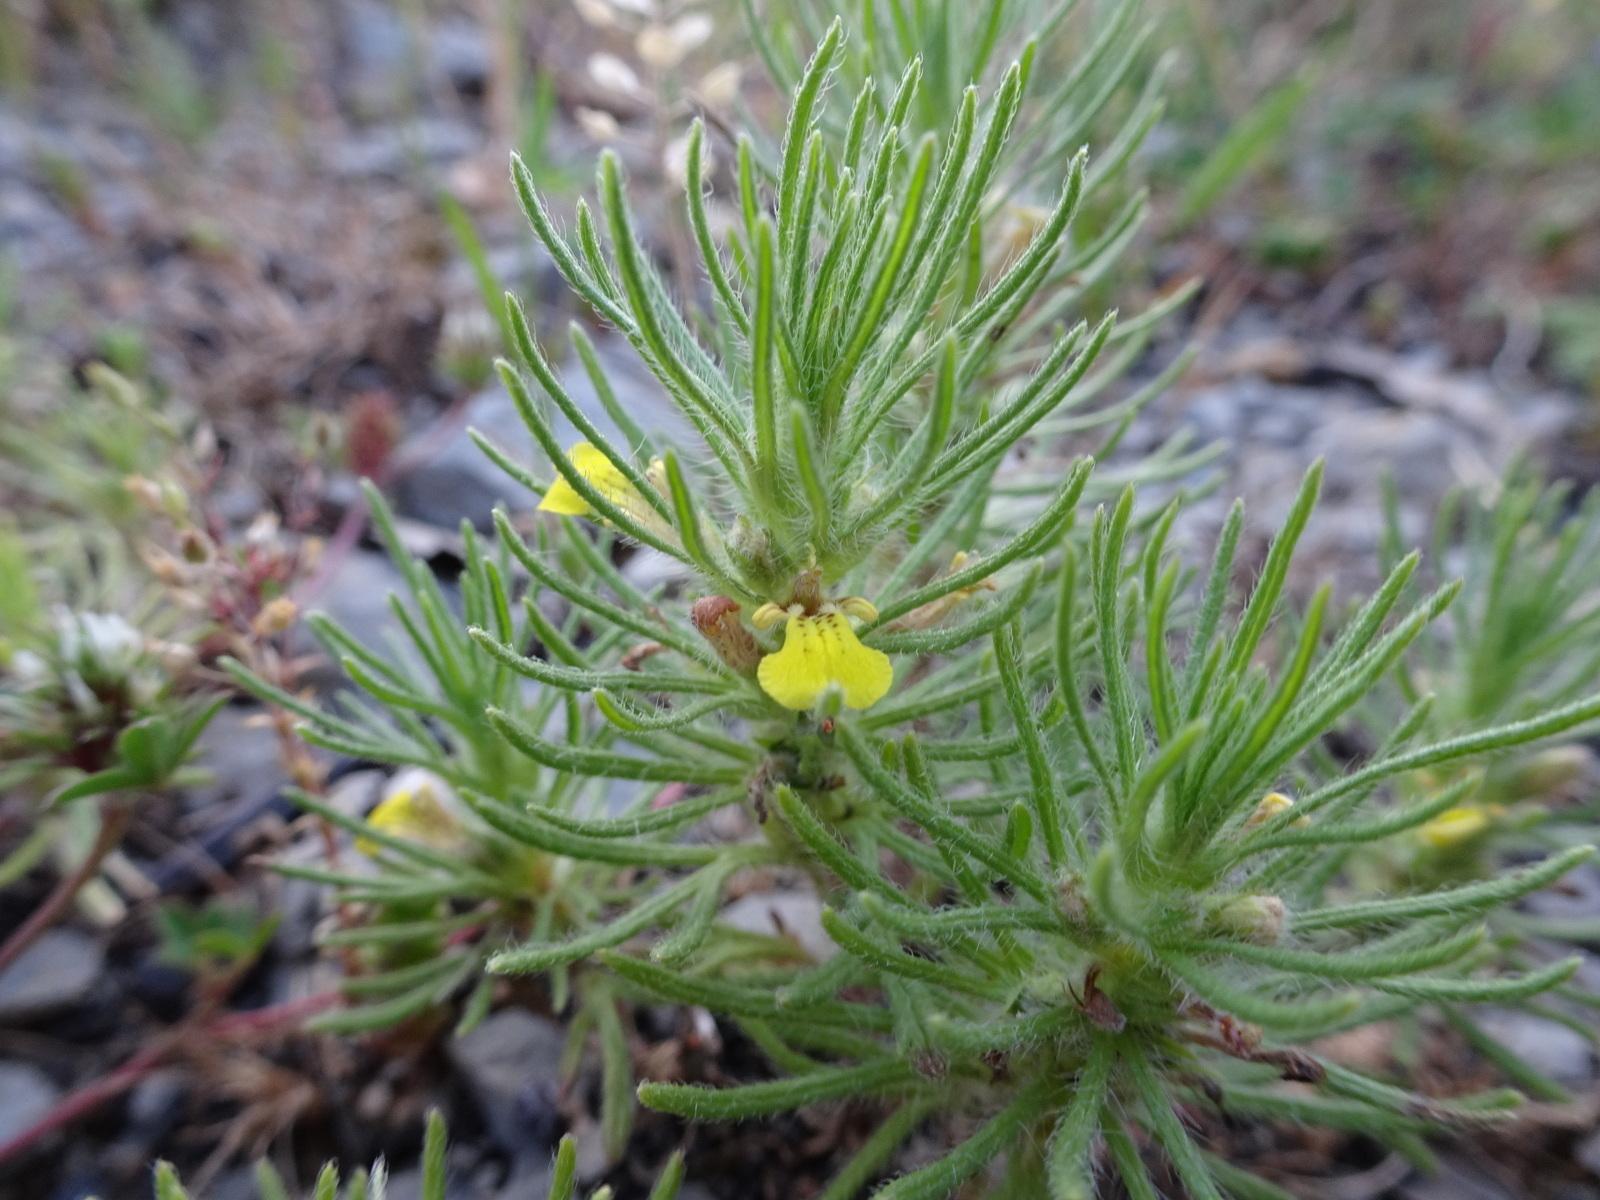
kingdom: Plantae
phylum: Tracheophyta
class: Magnoliopsida
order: Lamiales
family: Lamiaceae
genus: Ajuga
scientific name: Ajuga chamaepitys
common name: Ground-pine
